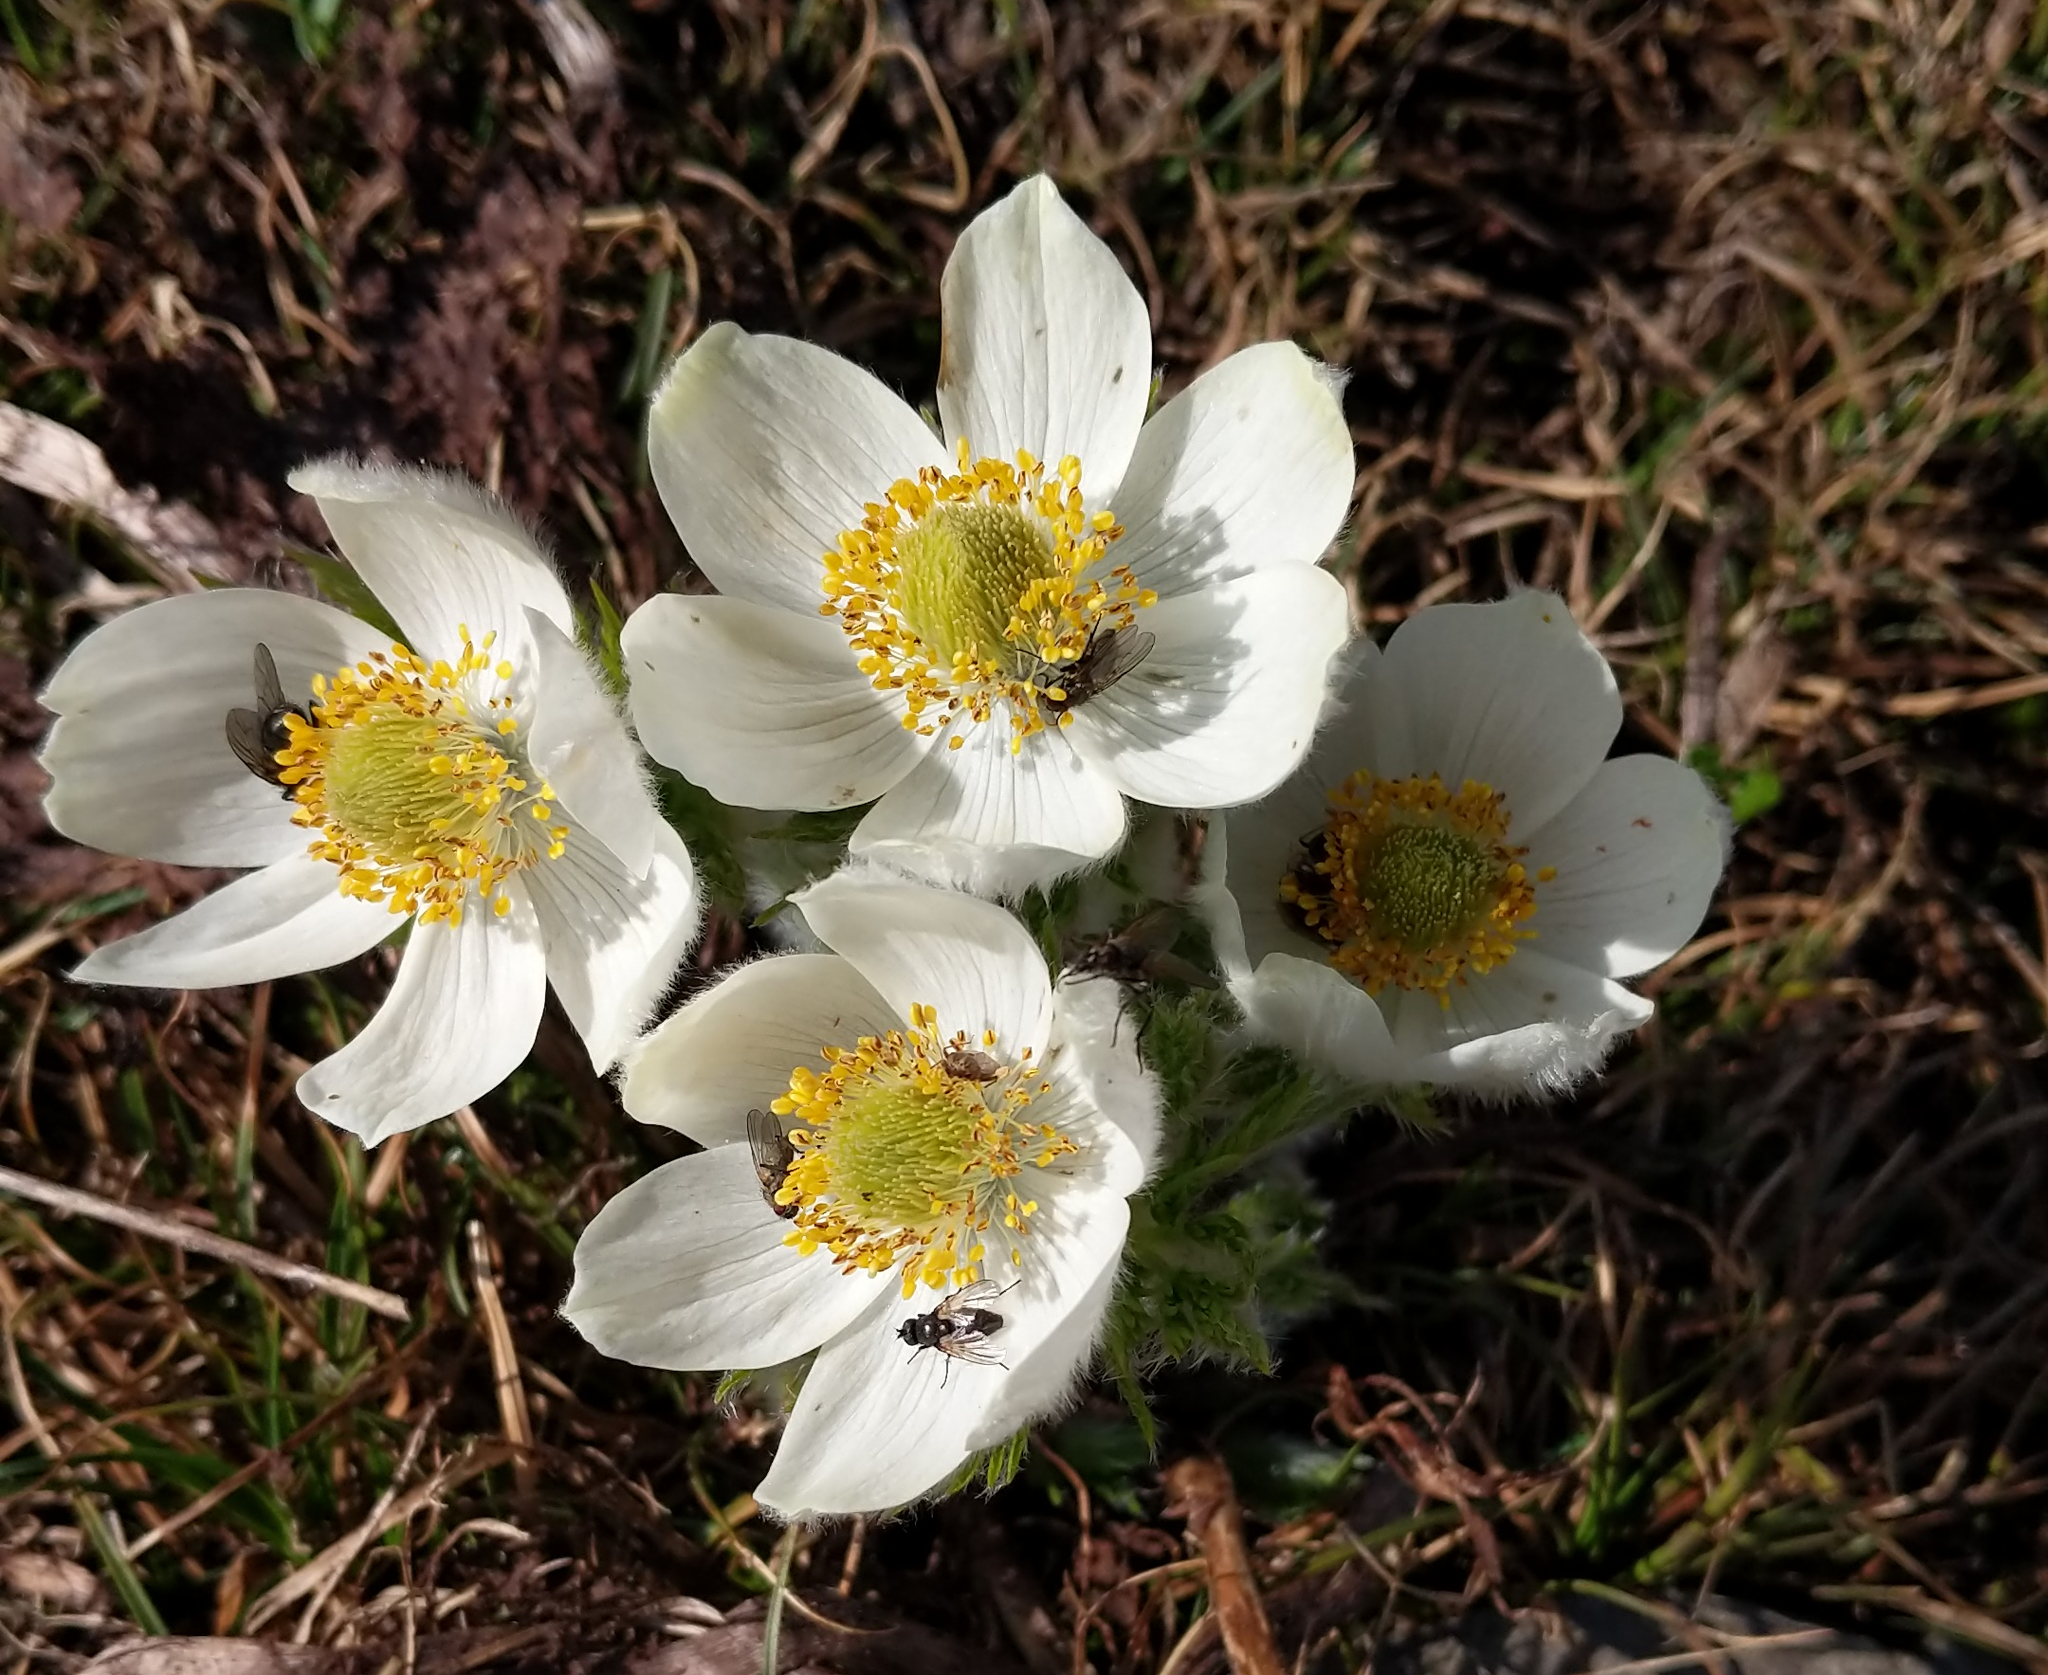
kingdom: Plantae
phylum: Tracheophyta
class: Magnoliopsida
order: Ranunculales
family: Ranunculaceae
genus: Pulsatilla
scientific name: Pulsatilla occidentalis
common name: Mountain pasqueflower
